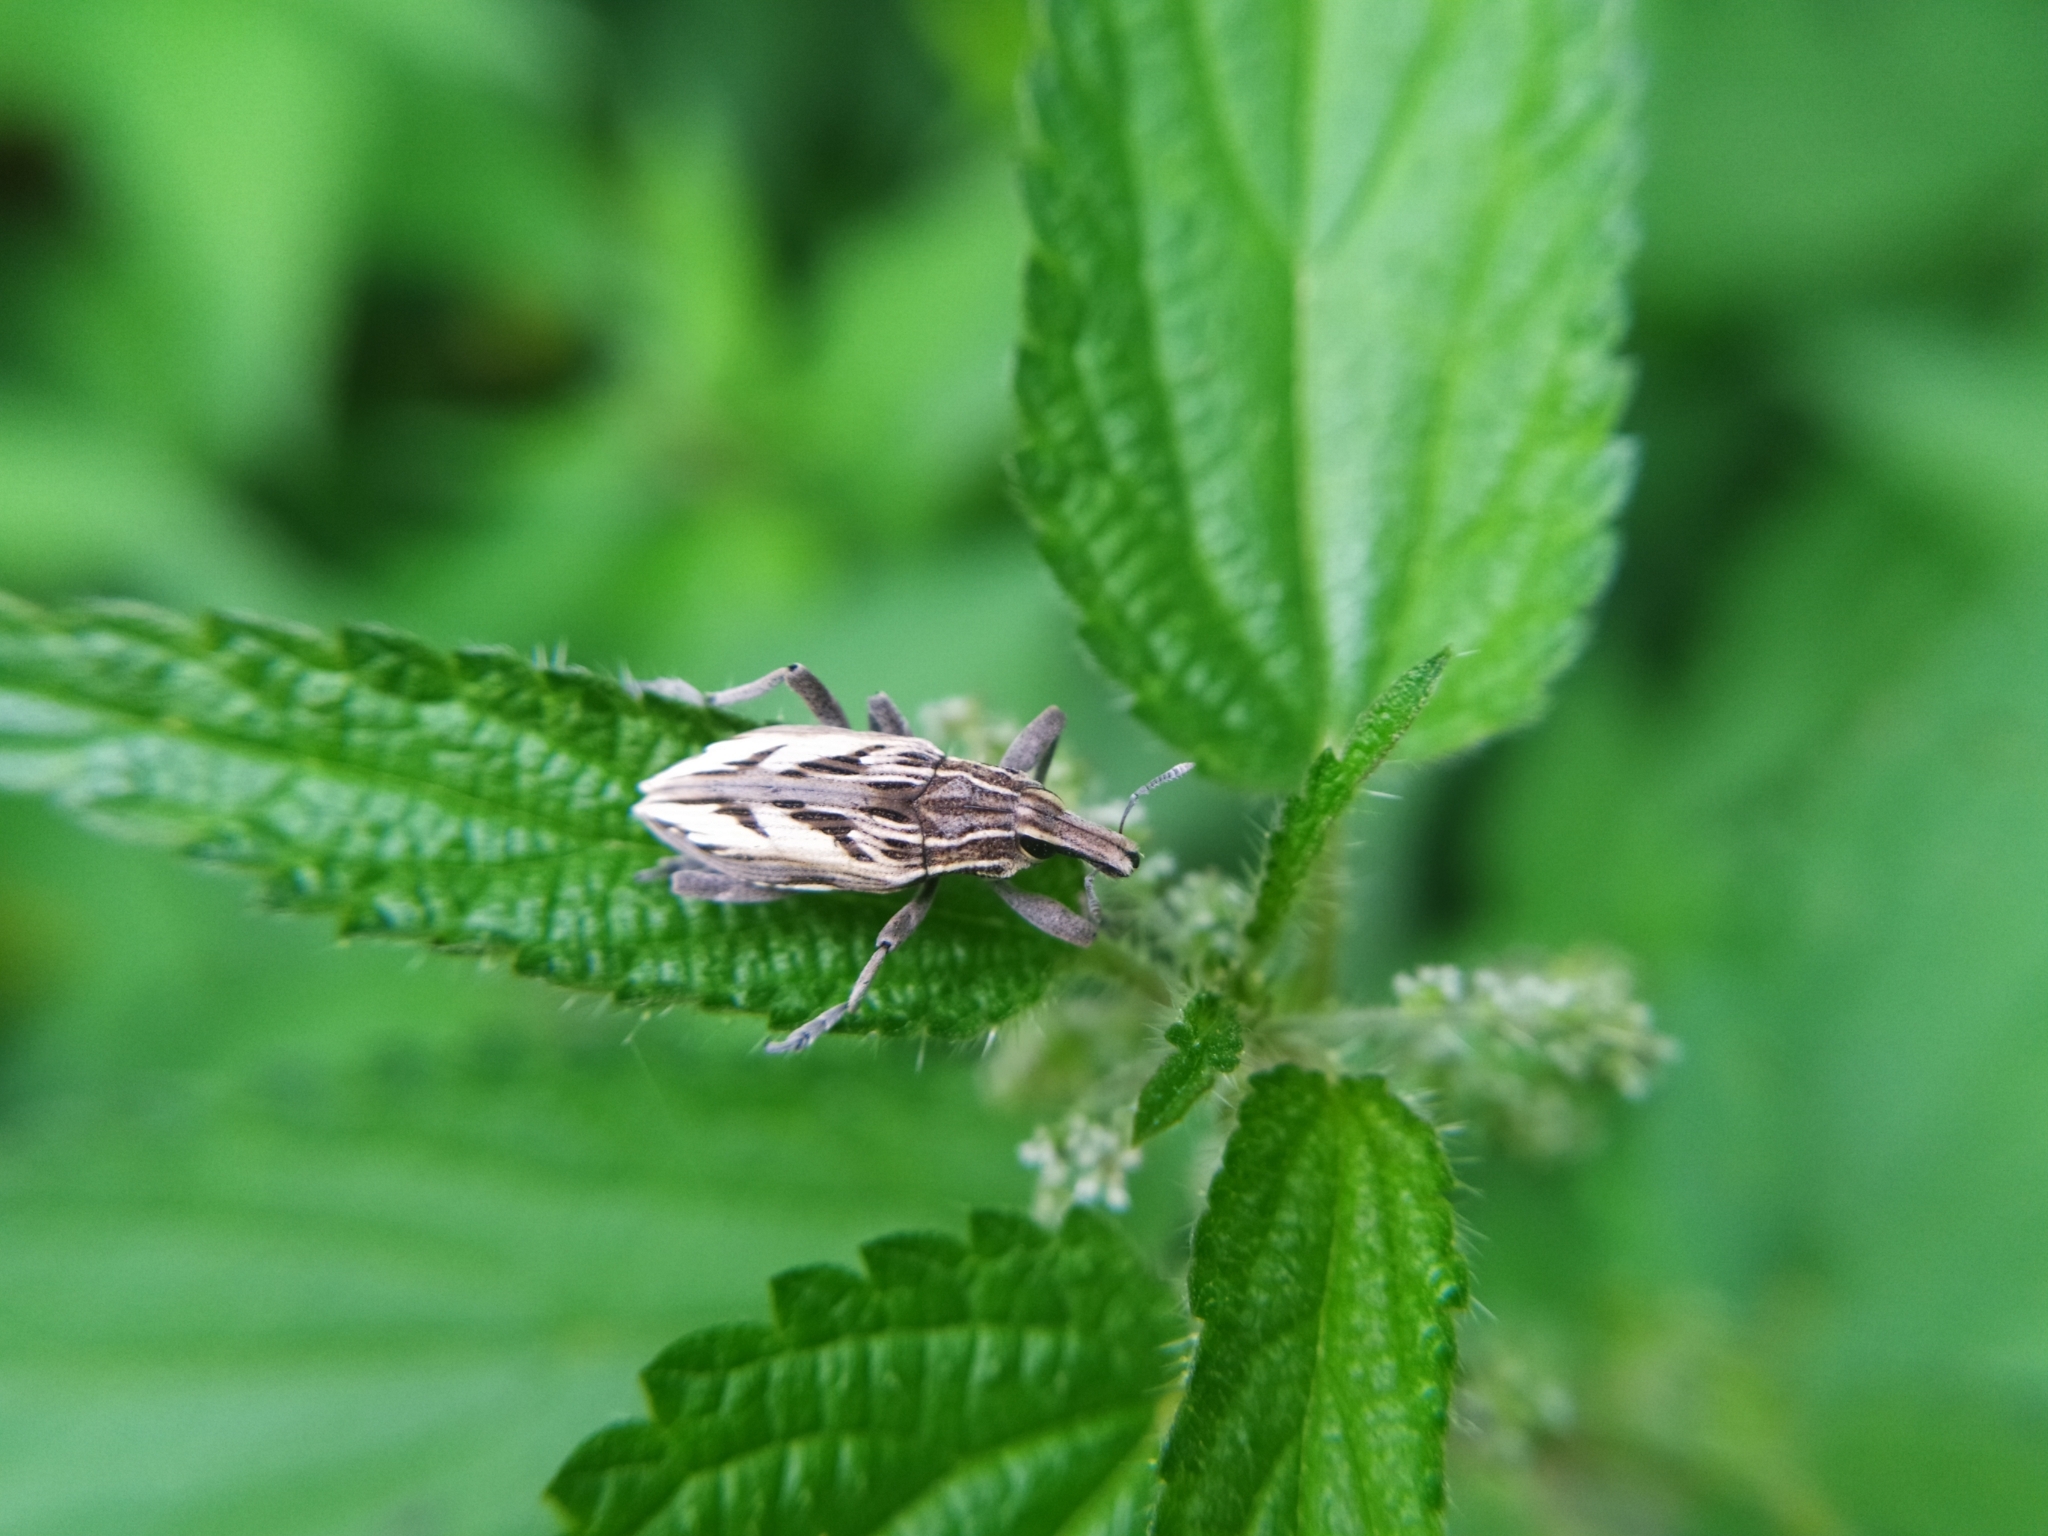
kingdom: Animalia
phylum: Arthropoda
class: Insecta
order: Coleoptera
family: Curculionidae
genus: Coniocleonus
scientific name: Coniocleonus nigrosuturatus
